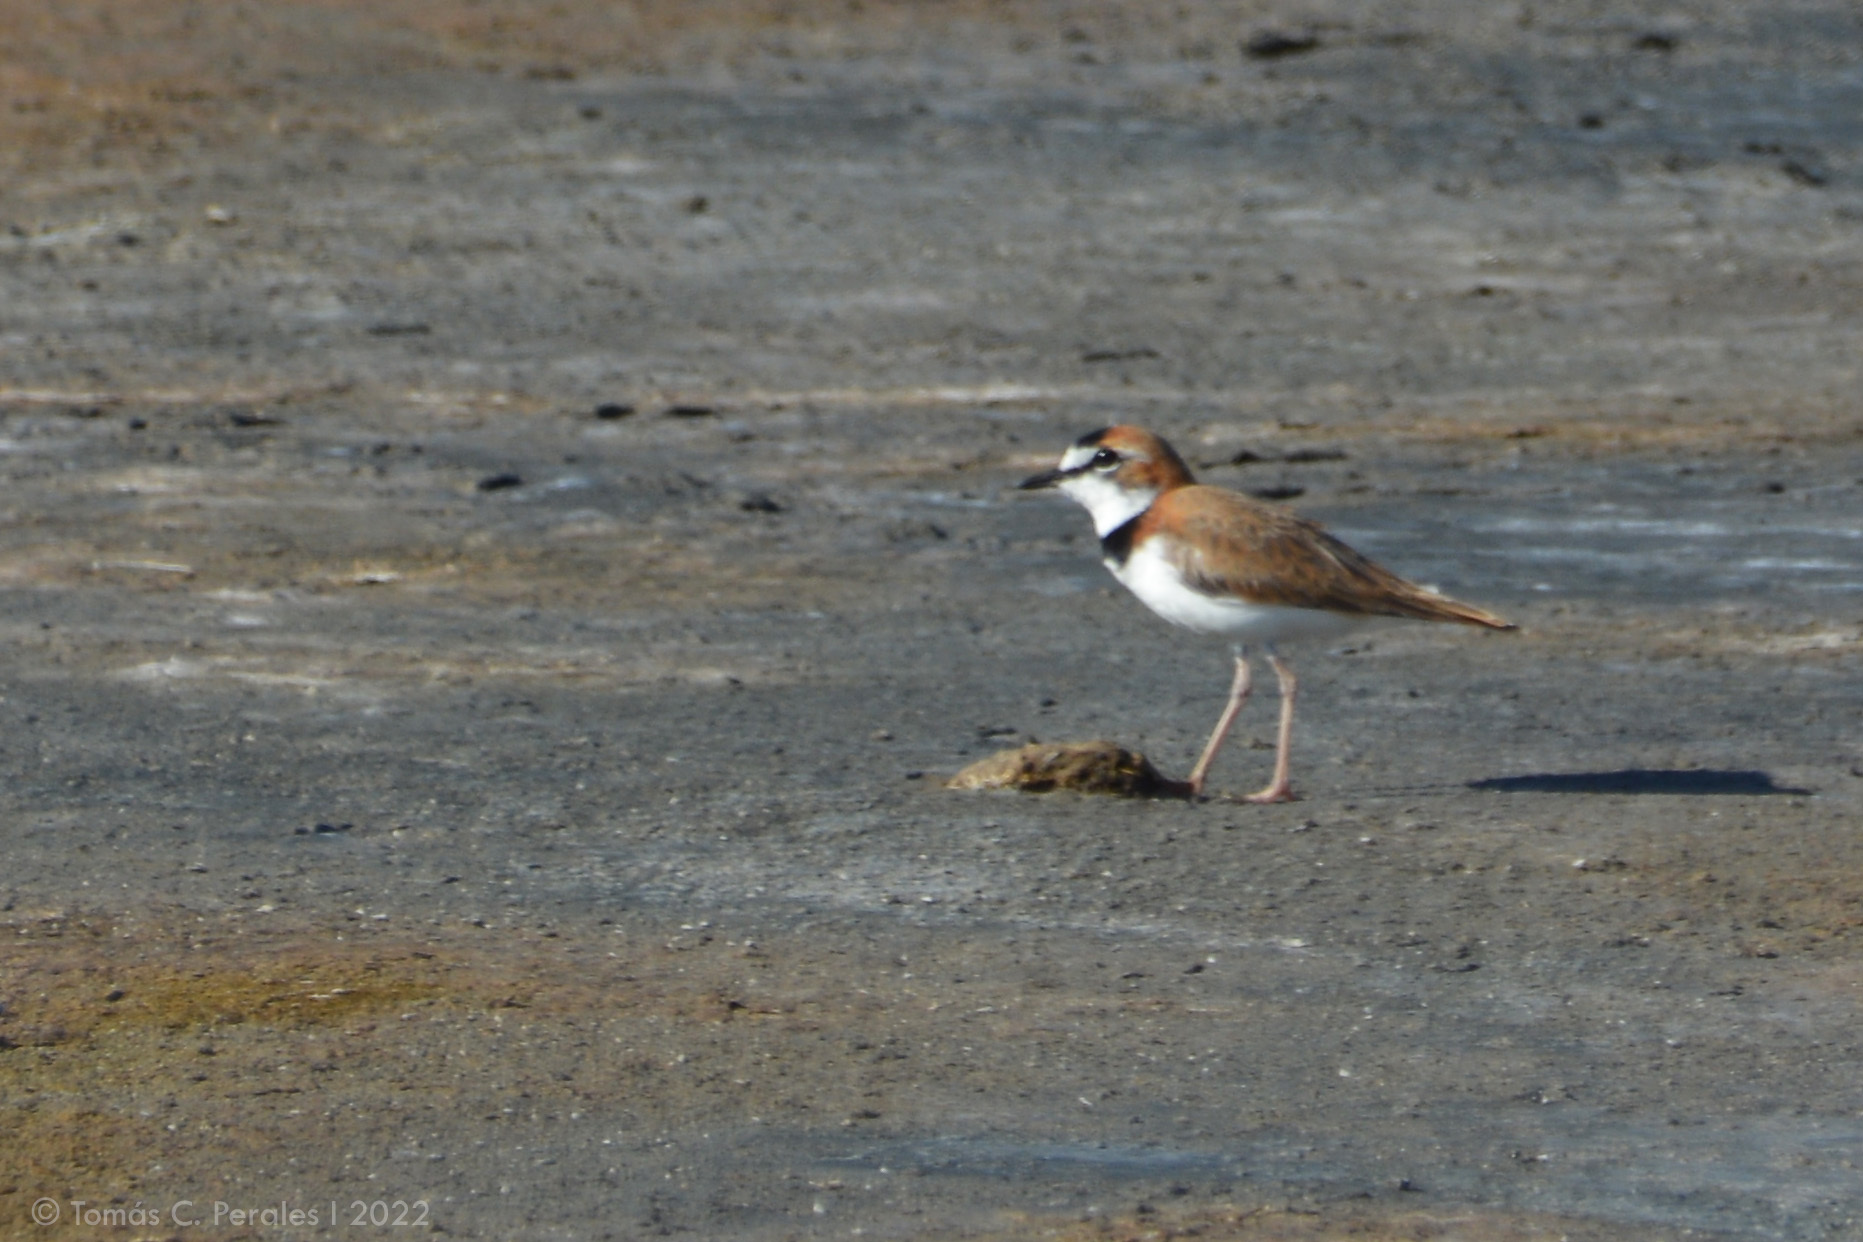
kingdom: Animalia
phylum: Chordata
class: Aves
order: Charadriiformes
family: Charadriidae
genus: Anarhynchus
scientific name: Anarhynchus
